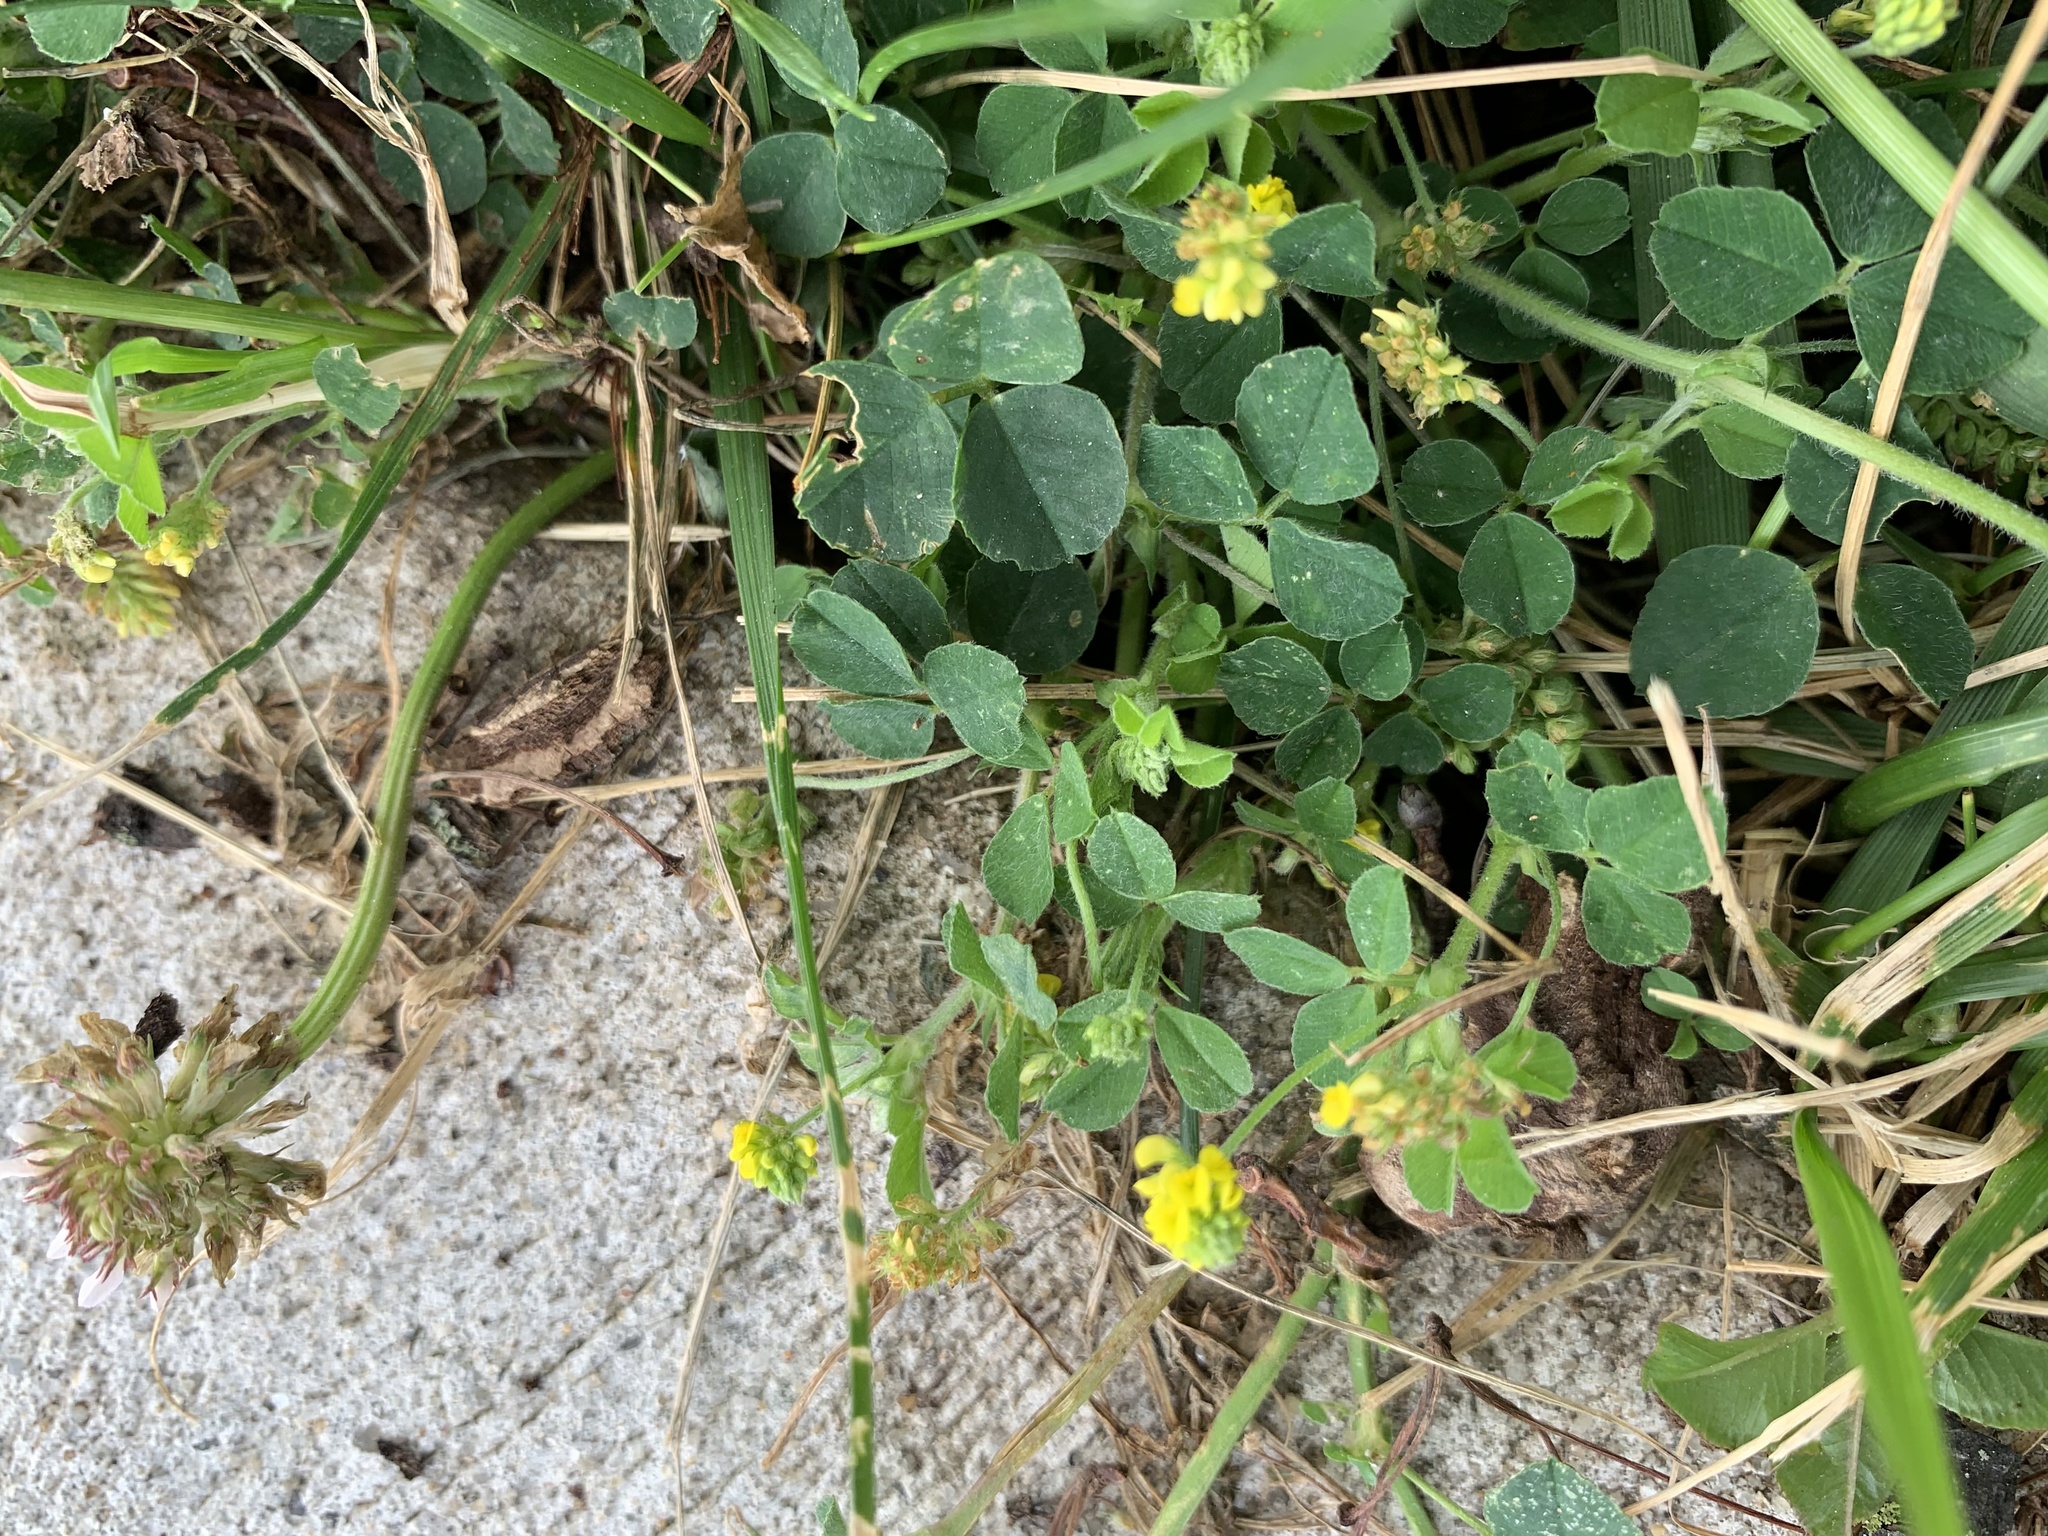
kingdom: Plantae
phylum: Tracheophyta
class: Magnoliopsida
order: Fabales
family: Fabaceae
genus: Medicago
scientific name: Medicago lupulina
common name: Black medick
